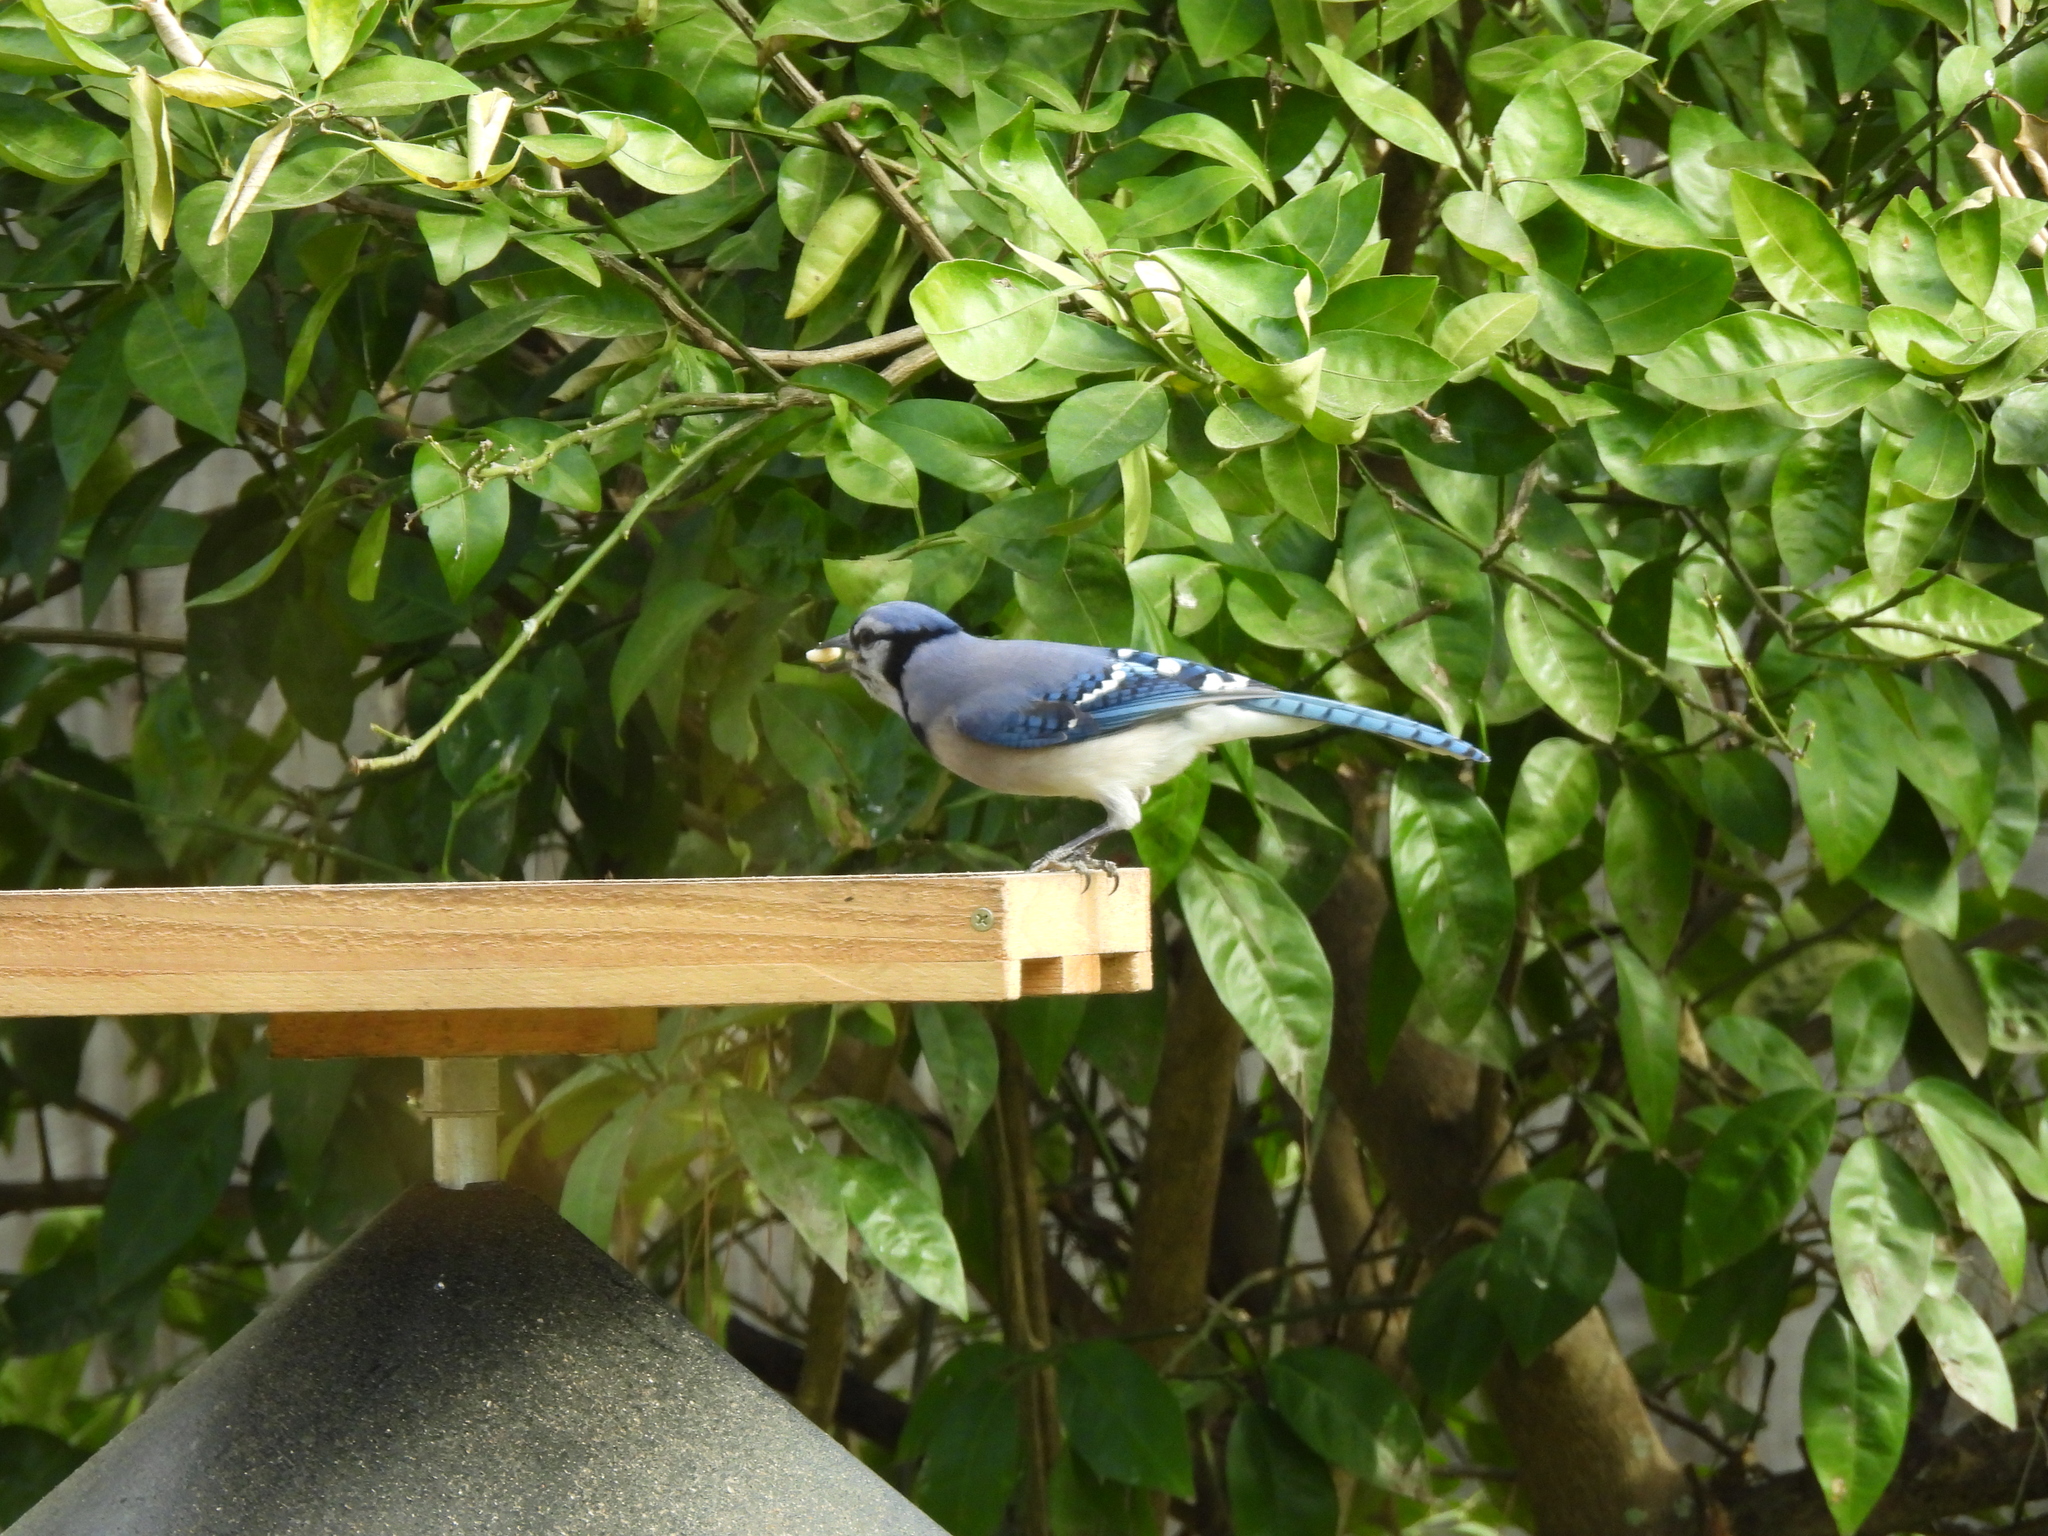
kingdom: Animalia
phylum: Chordata
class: Aves
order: Passeriformes
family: Corvidae
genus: Cyanocitta
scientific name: Cyanocitta cristata
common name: Blue jay
